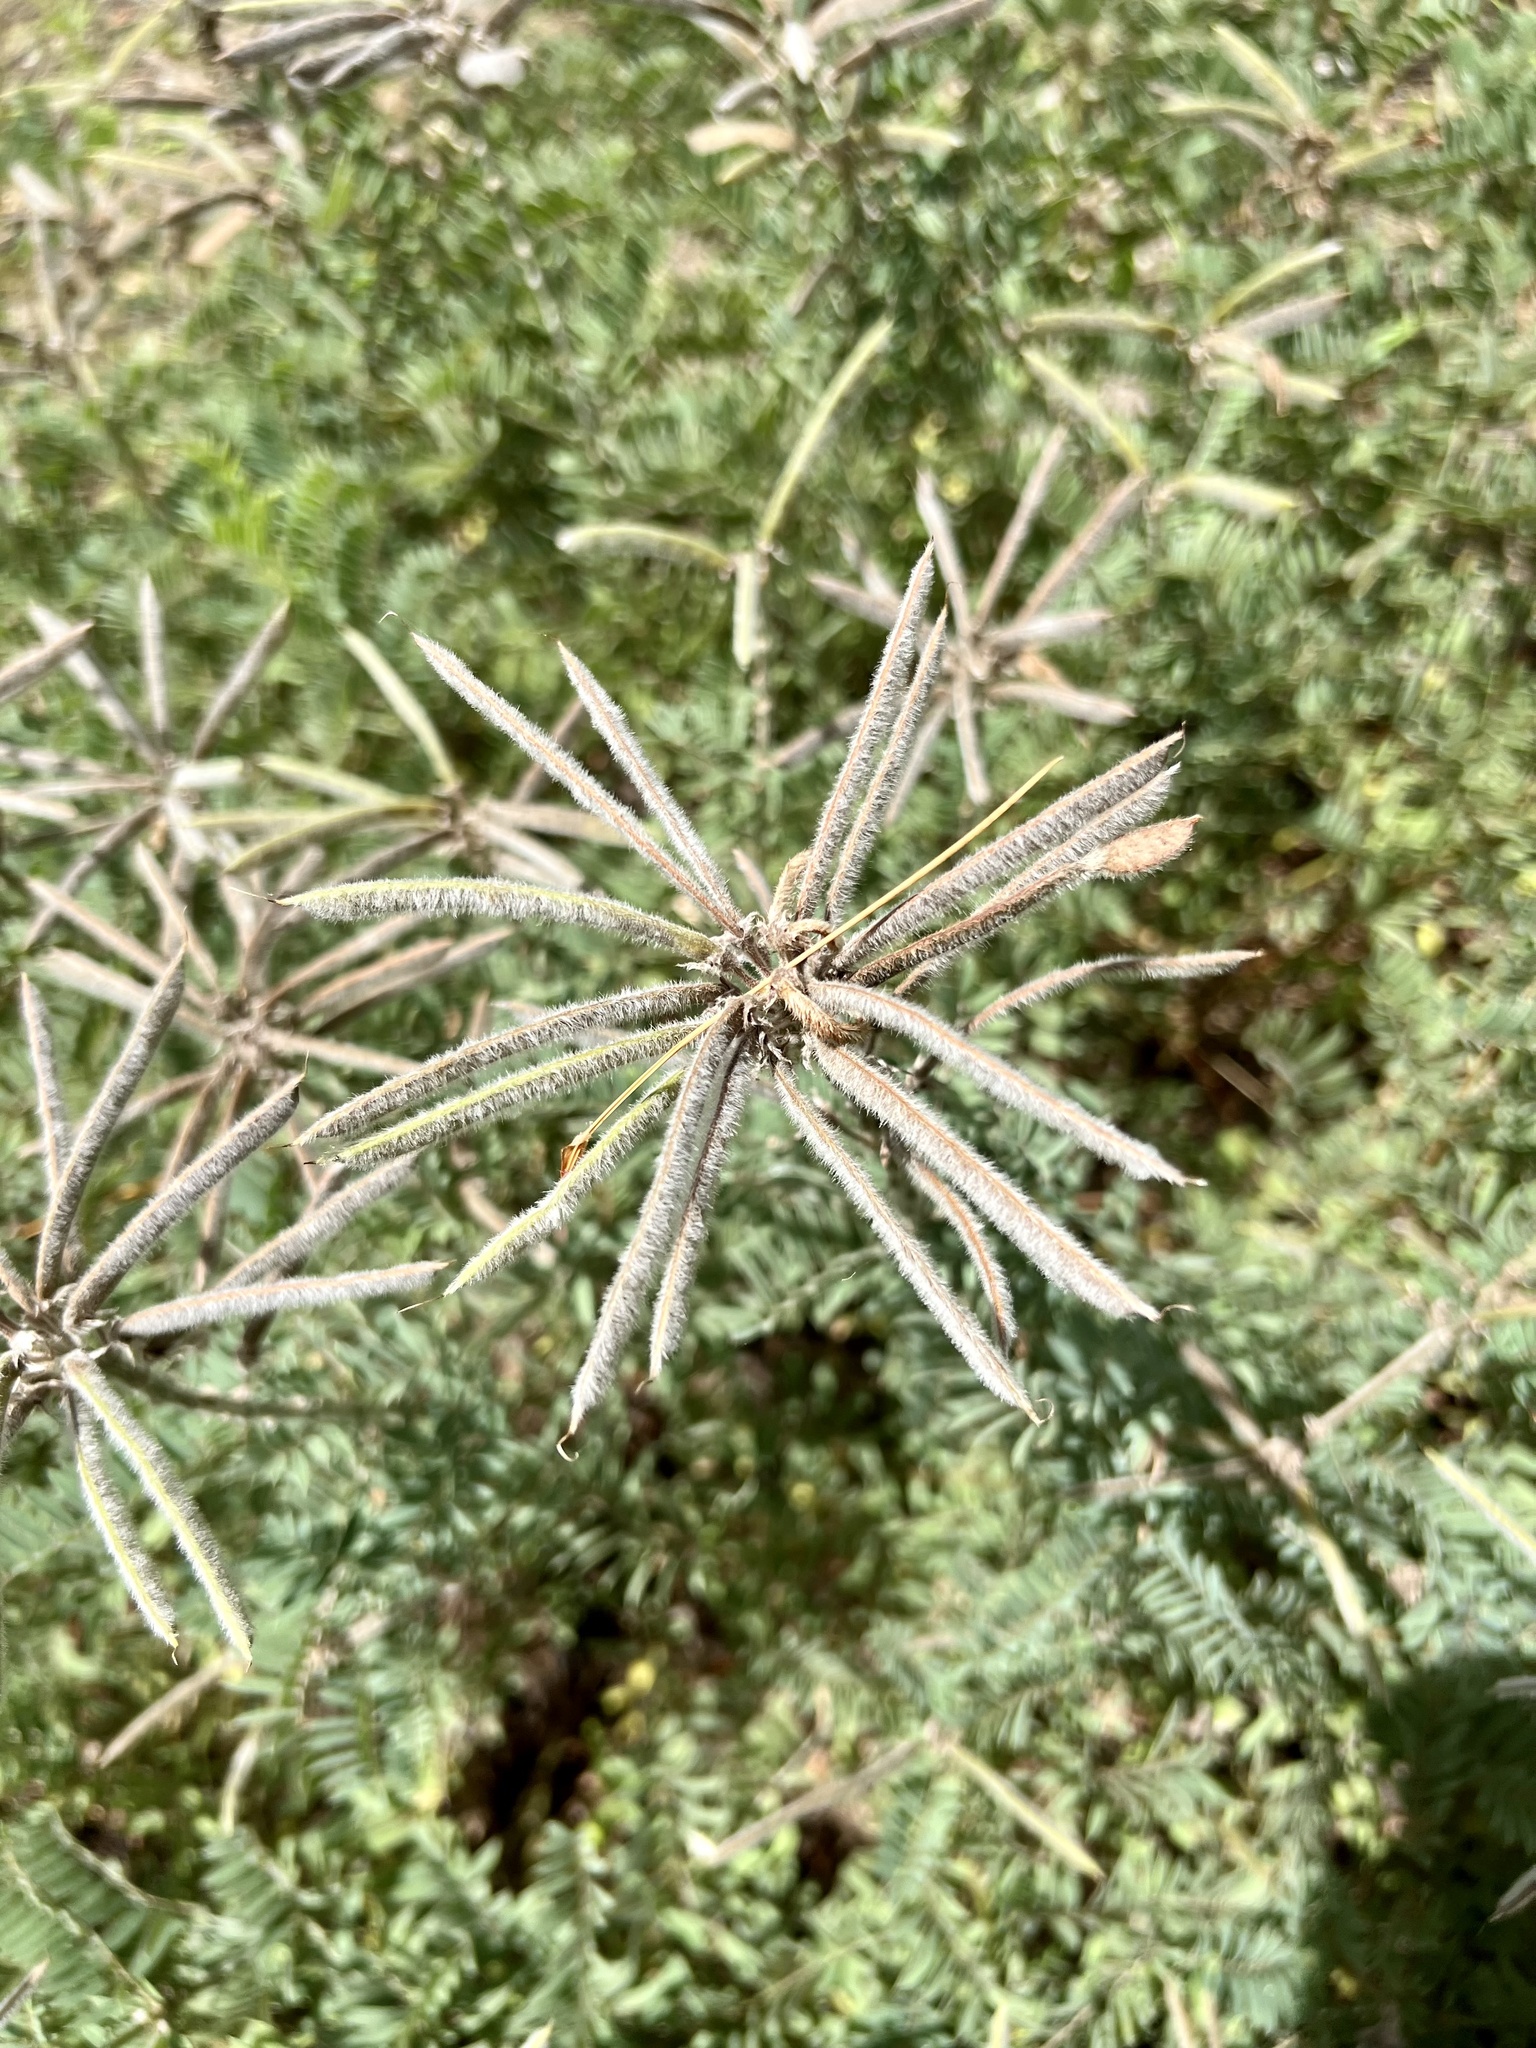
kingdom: Plantae
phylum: Tracheophyta
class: Magnoliopsida
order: Fabales
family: Fabaceae
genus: Tephrosia
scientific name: Tephrosia virginiana
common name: Rabbit-pea
